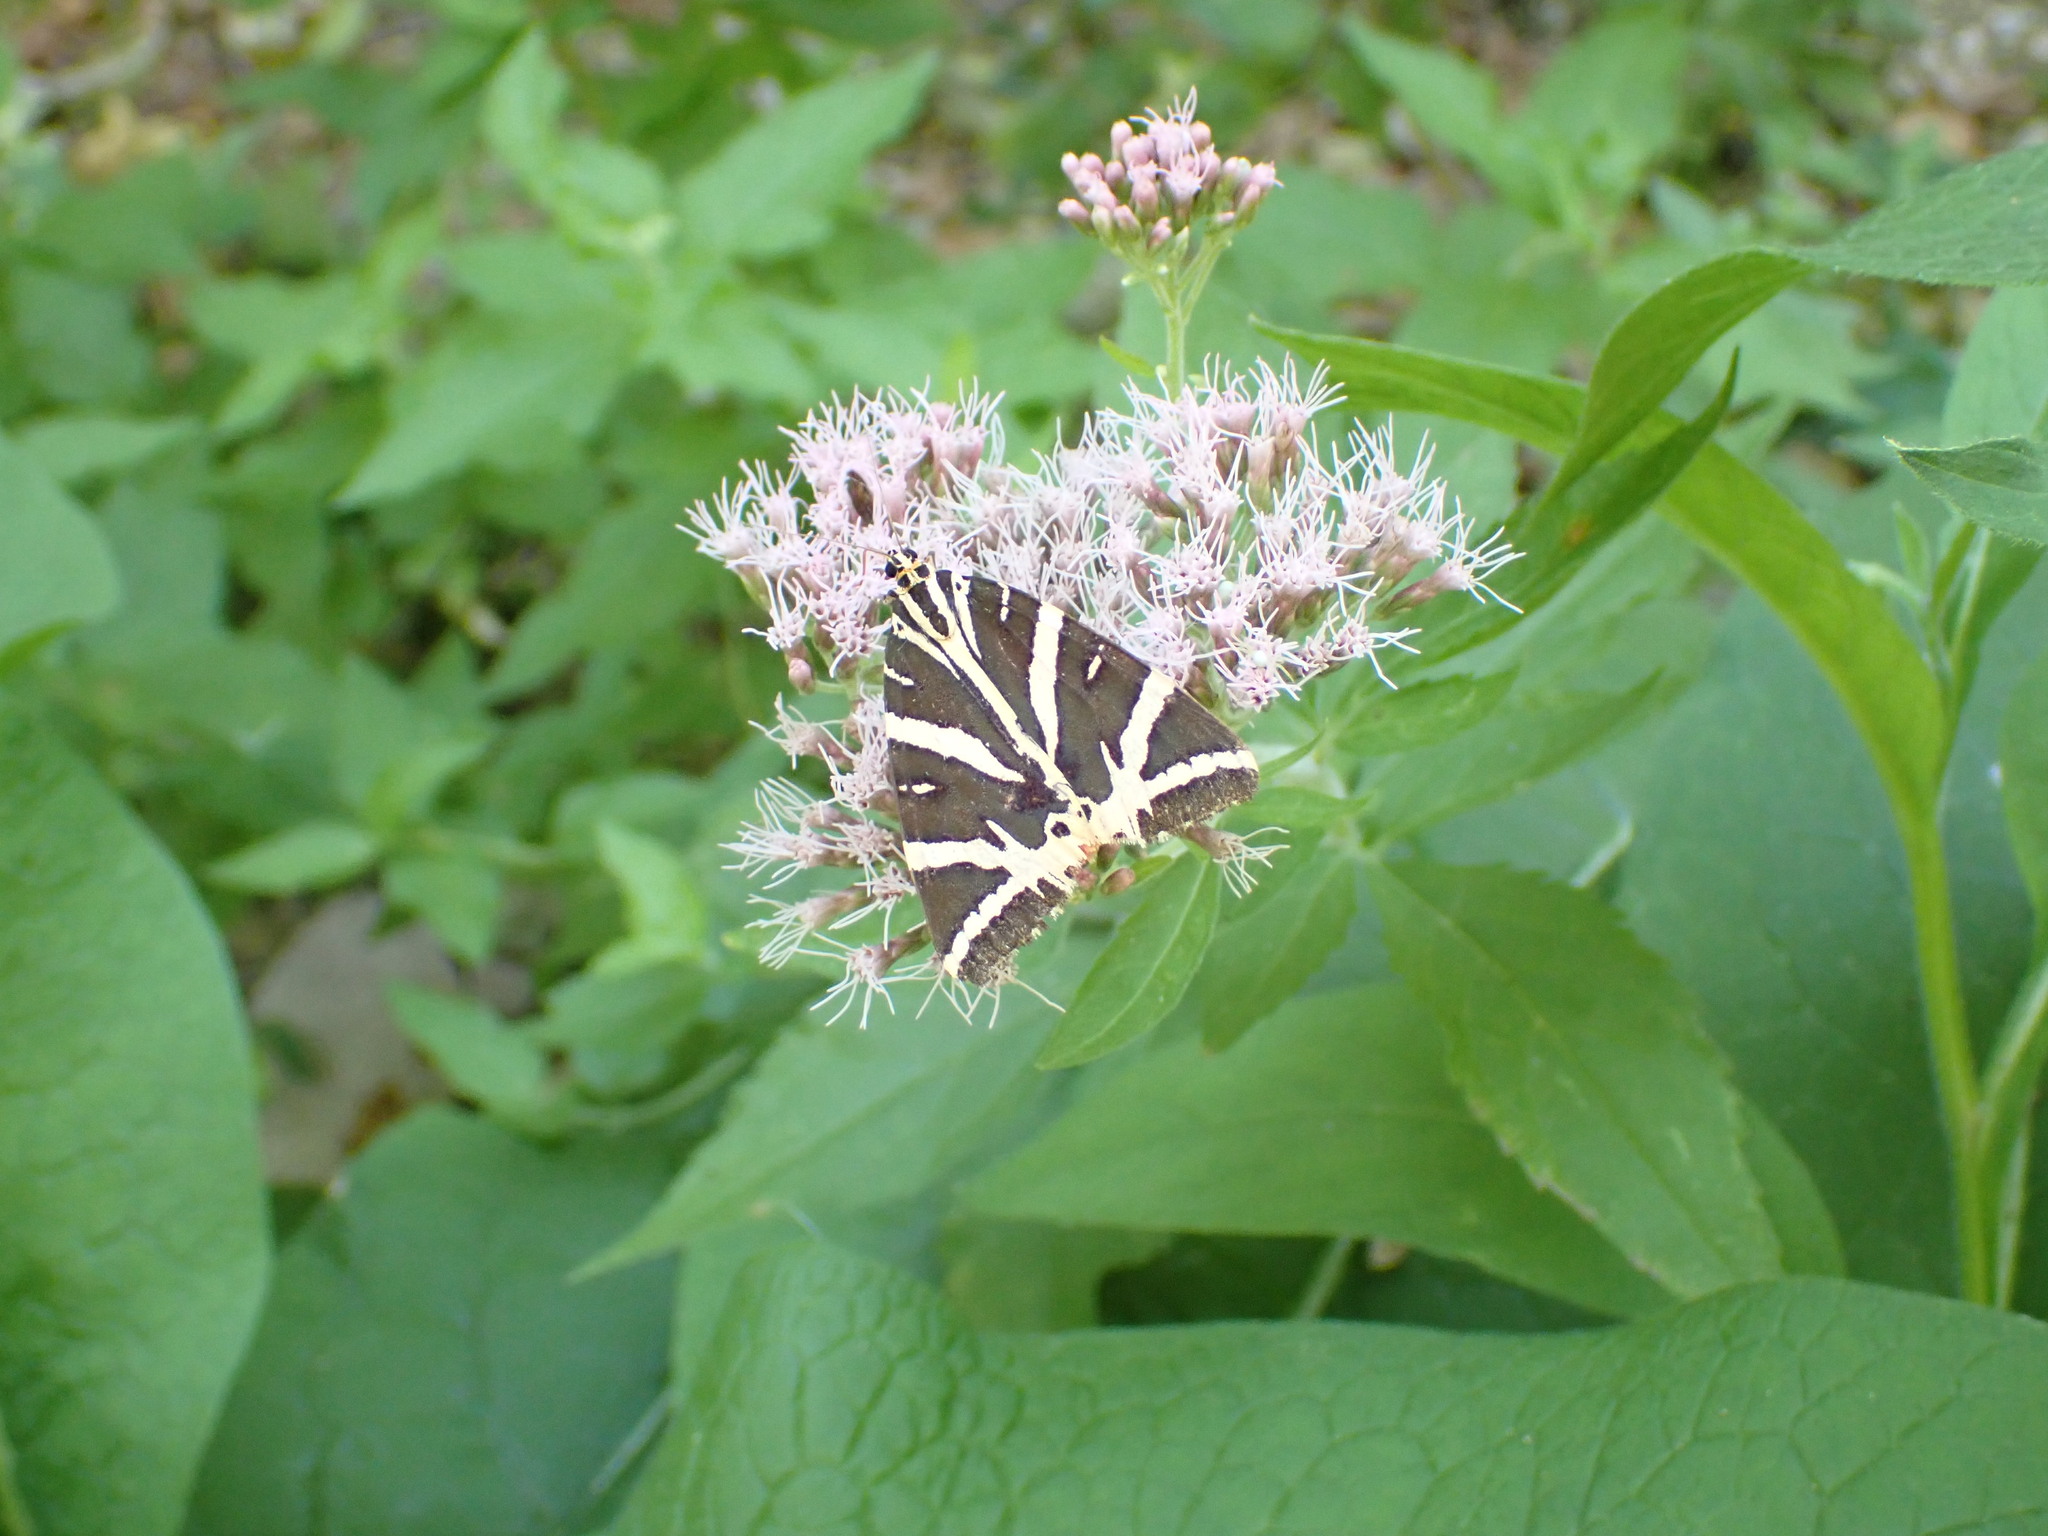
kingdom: Plantae
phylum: Tracheophyta
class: Magnoliopsida
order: Asterales
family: Asteraceae
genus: Eupatorium
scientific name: Eupatorium cannabinum
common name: Hemp-agrimony
